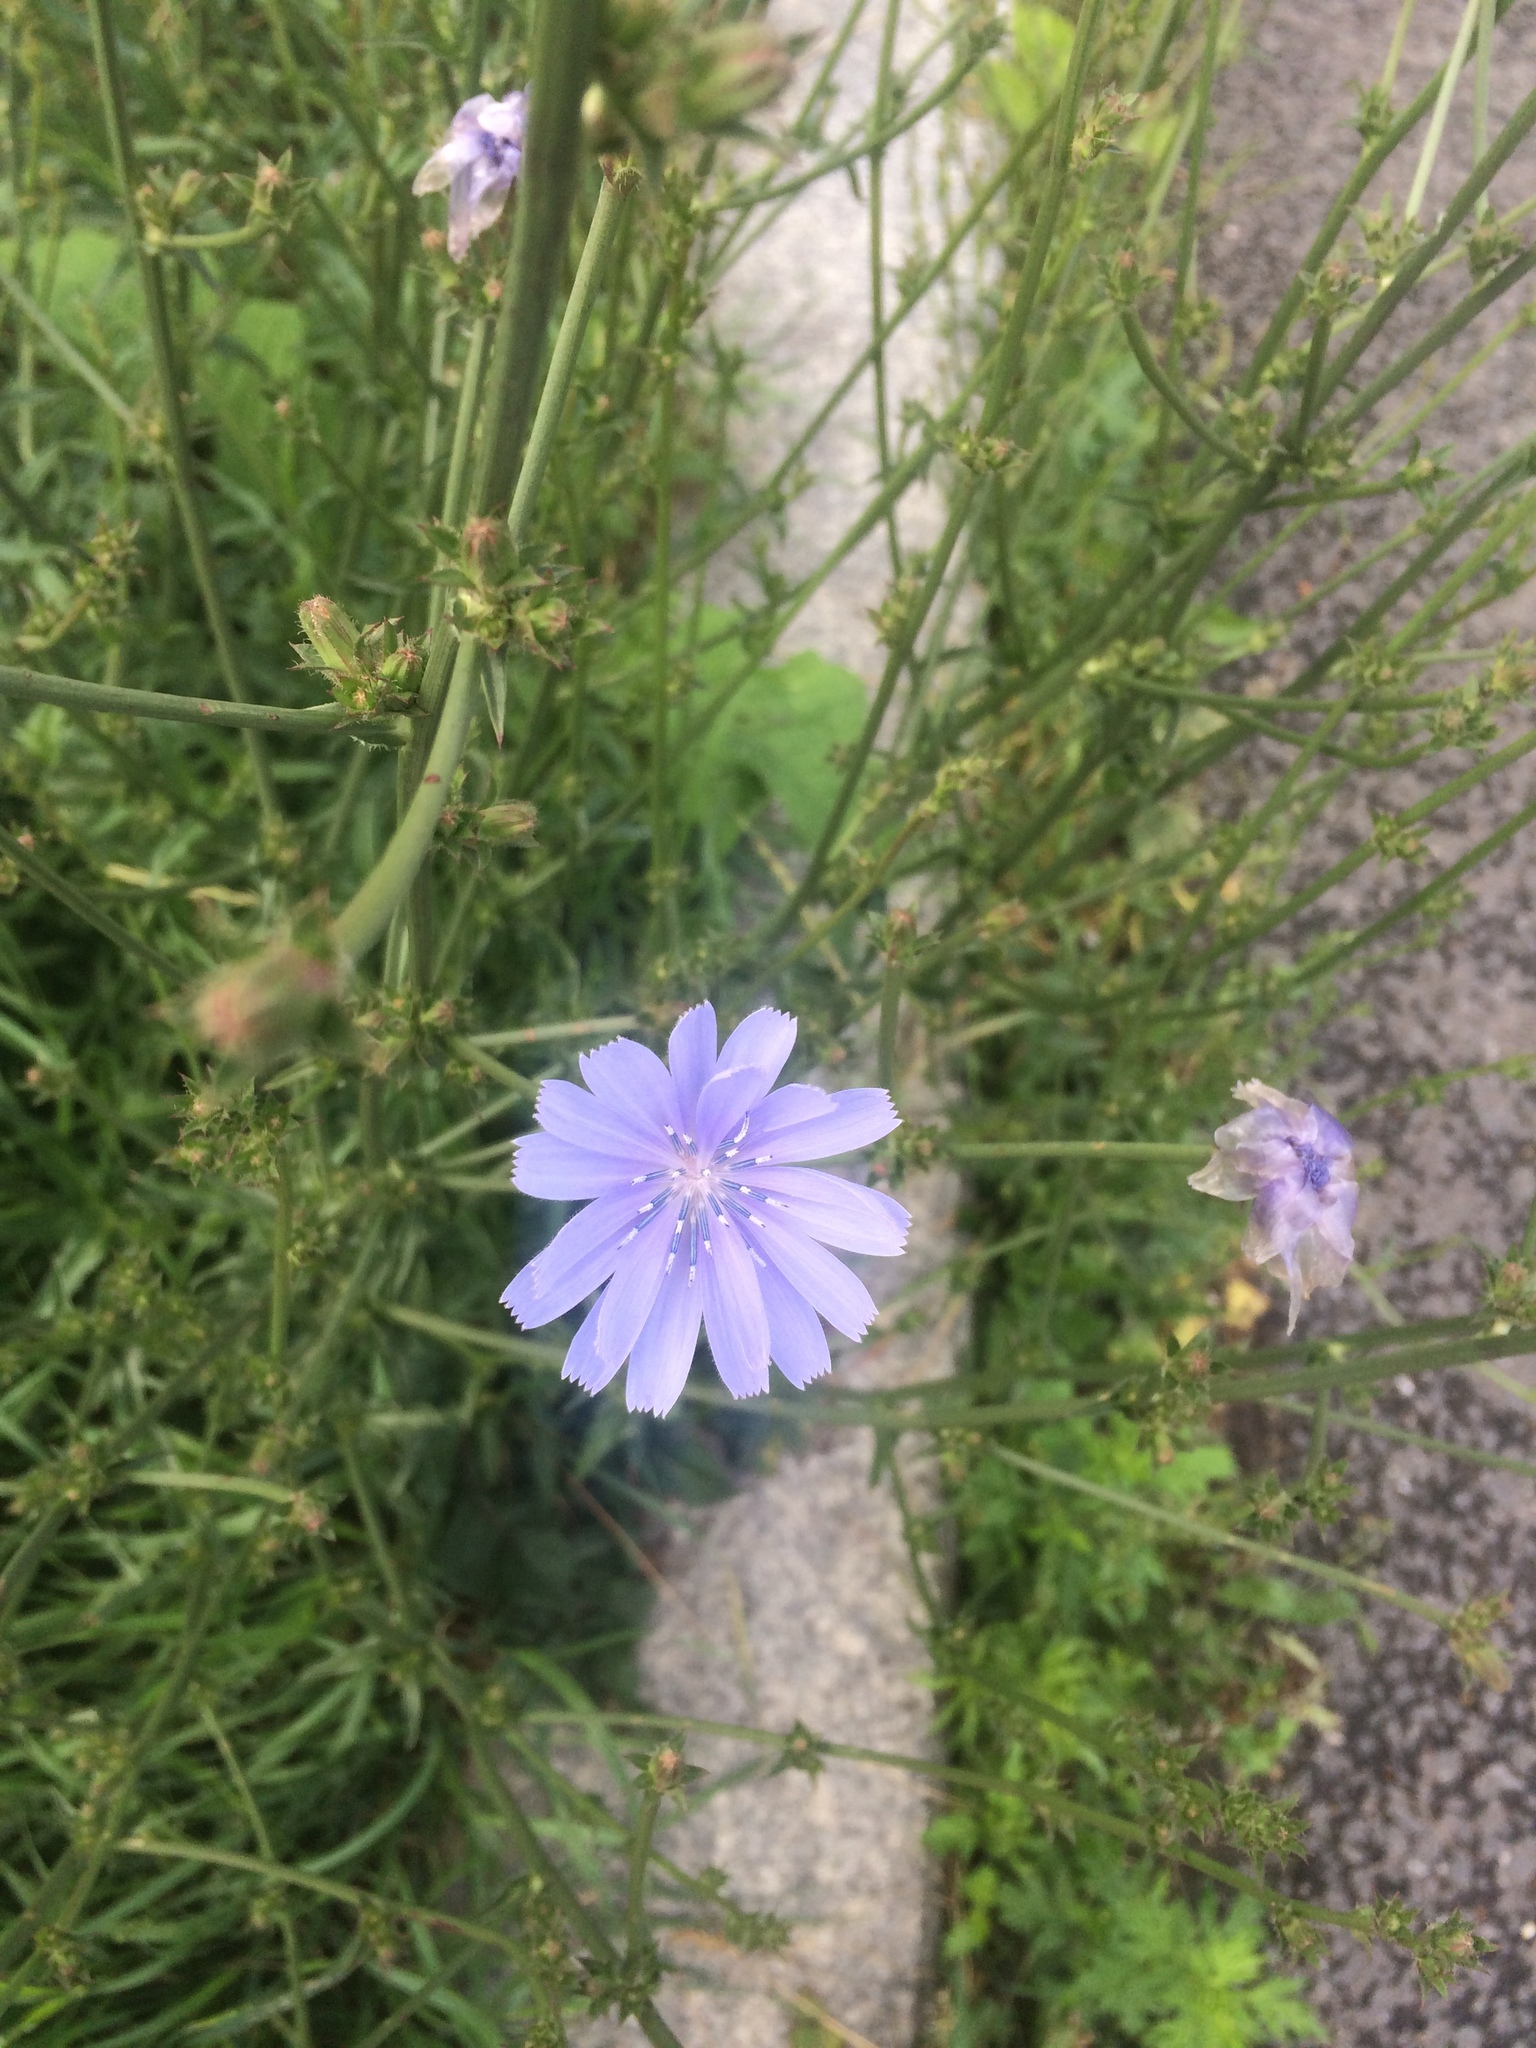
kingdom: Plantae
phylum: Tracheophyta
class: Magnoliopsida
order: Asterales
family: Asteraceae
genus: Cichorium
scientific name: Cichorium intybus
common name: Chicory
